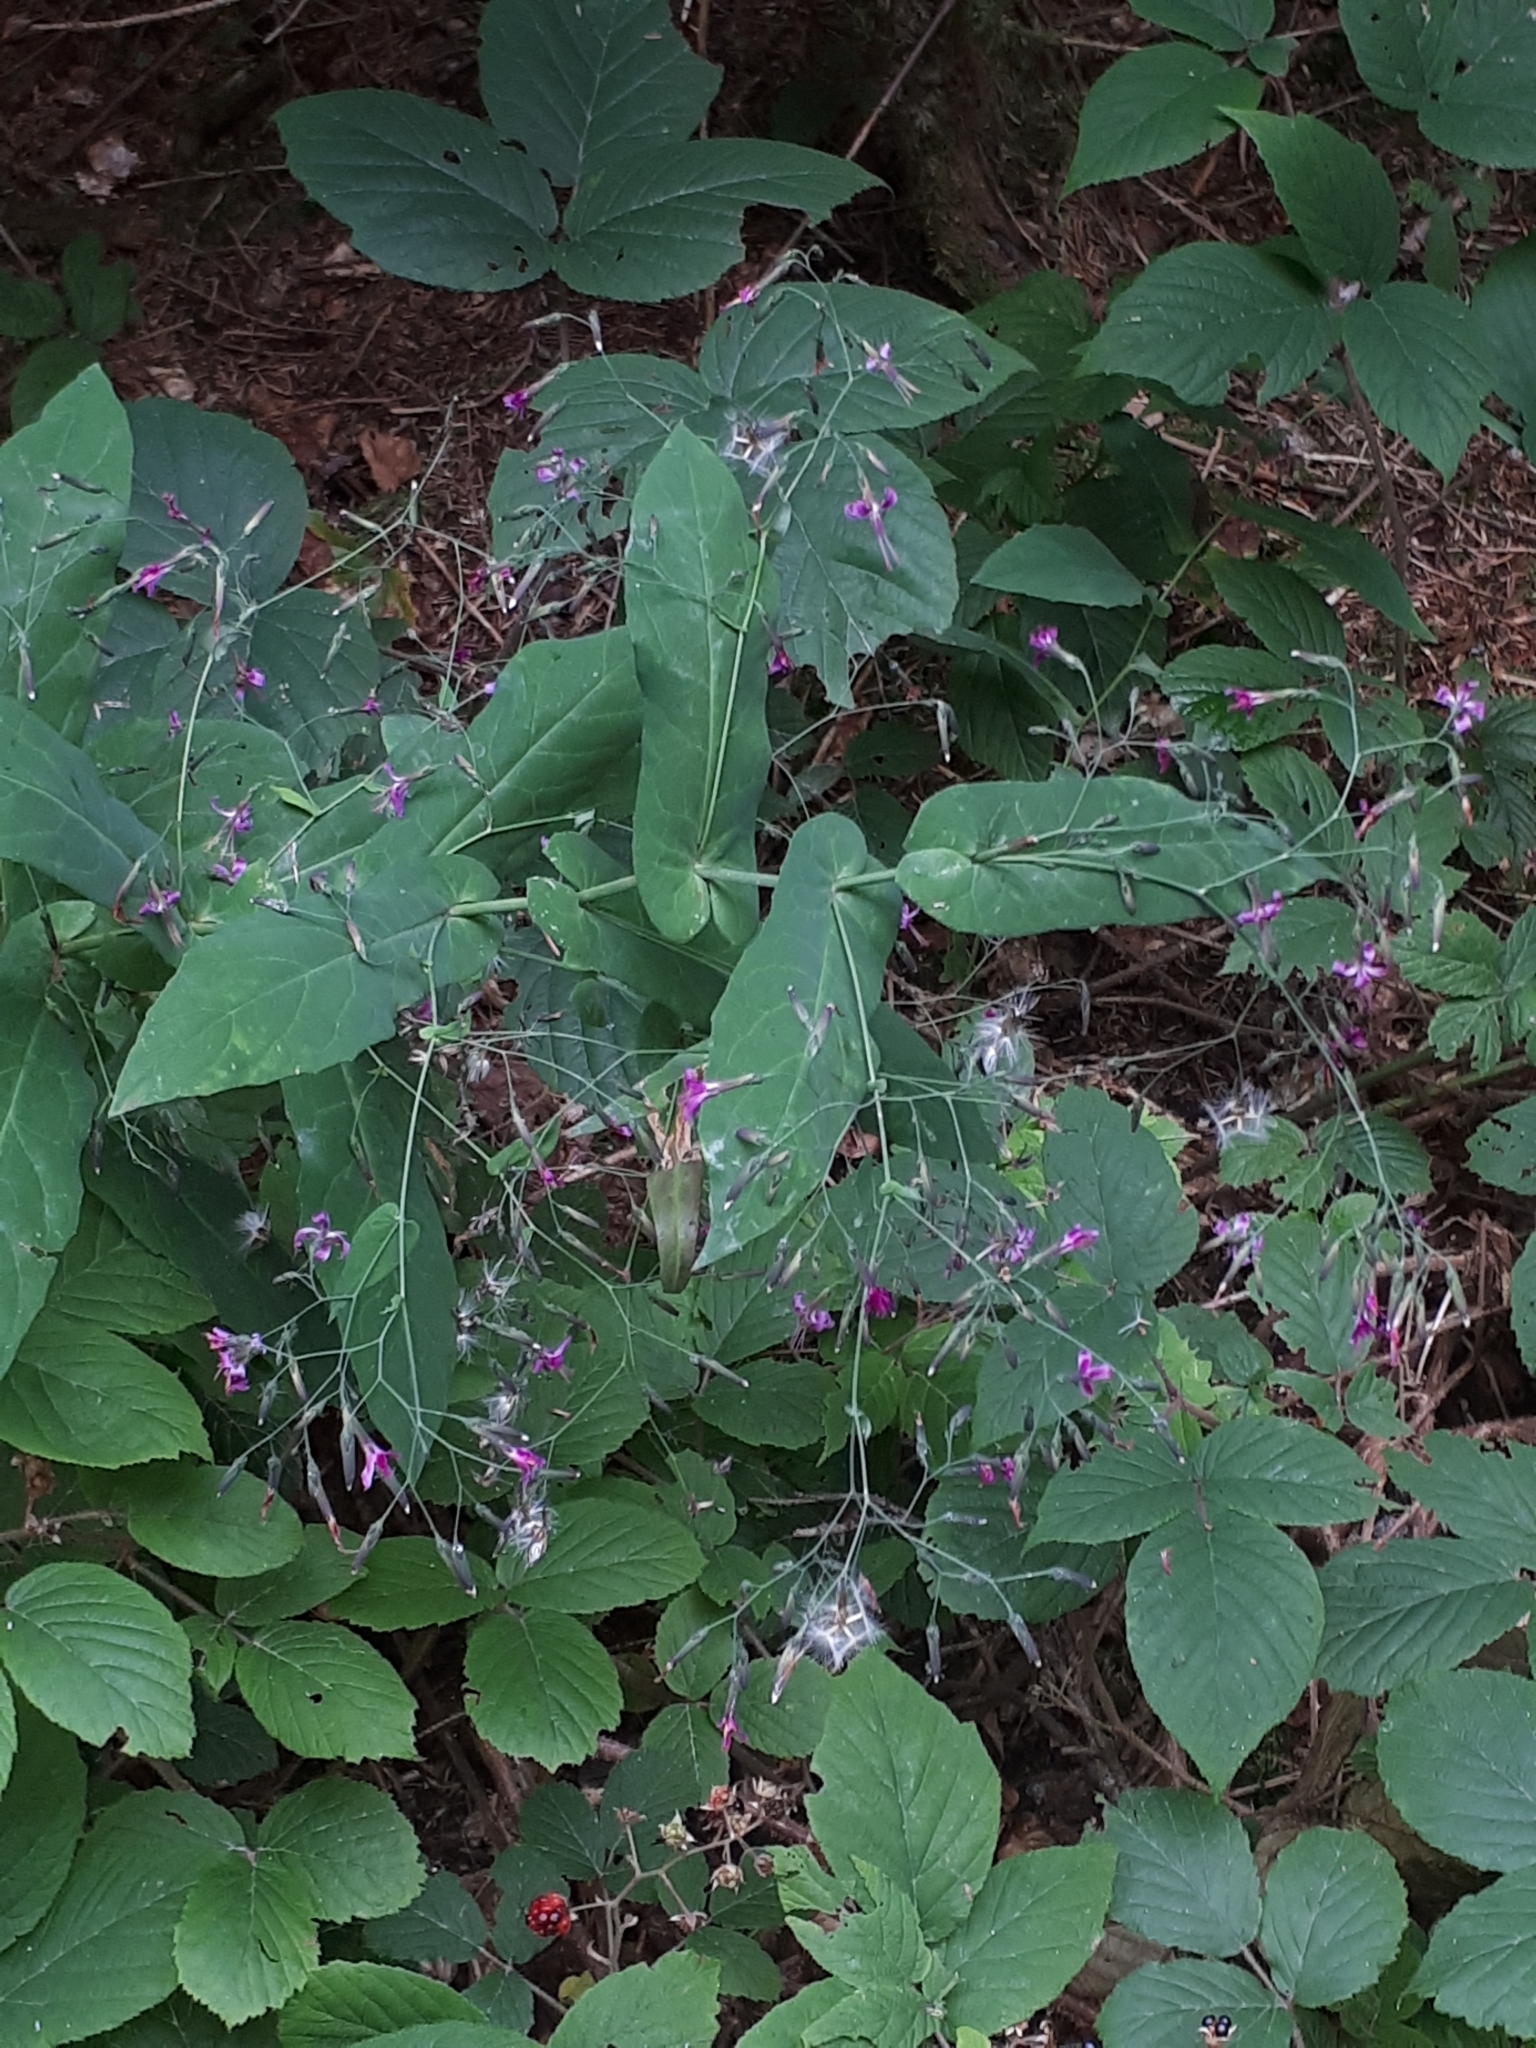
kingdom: Plantae
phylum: Tracheophyta
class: Magnoliopsida
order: Asterales
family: Asteraceae
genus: Prenanthes
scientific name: Prenanthes purpurea
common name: Purple lettuce
